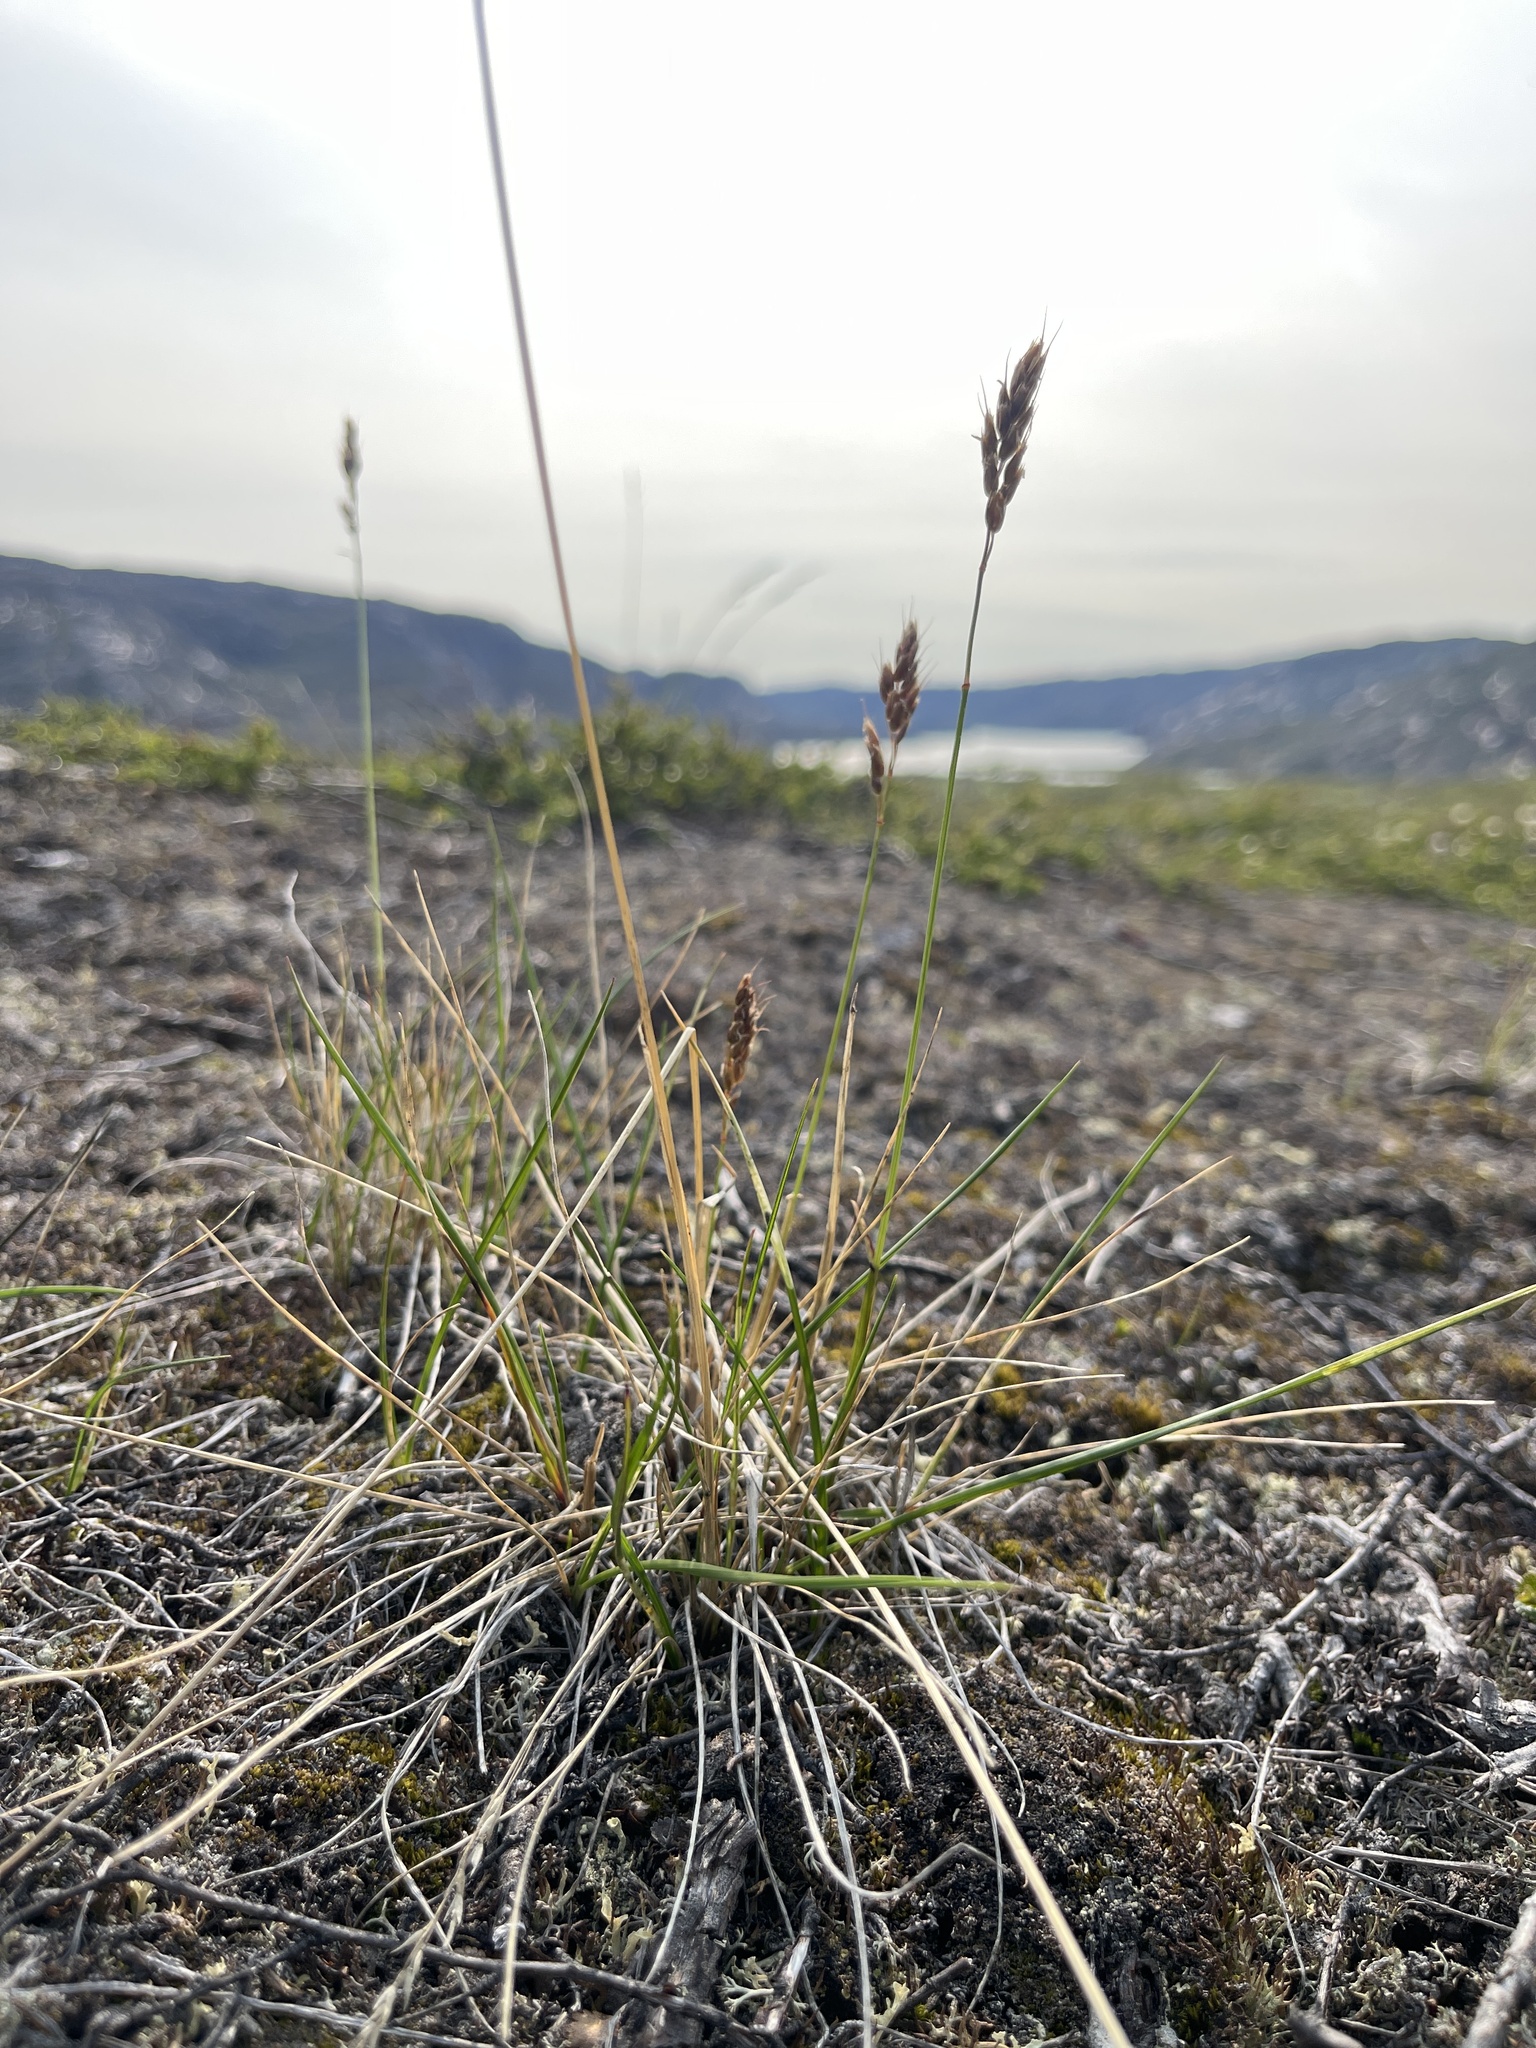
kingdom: Plantae
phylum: Tracheophyta
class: Liliopsida
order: Poales
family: Poaceae
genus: Anthoxanthum
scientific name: Anthoxanthum monticola
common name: Alpine sweetgrass
